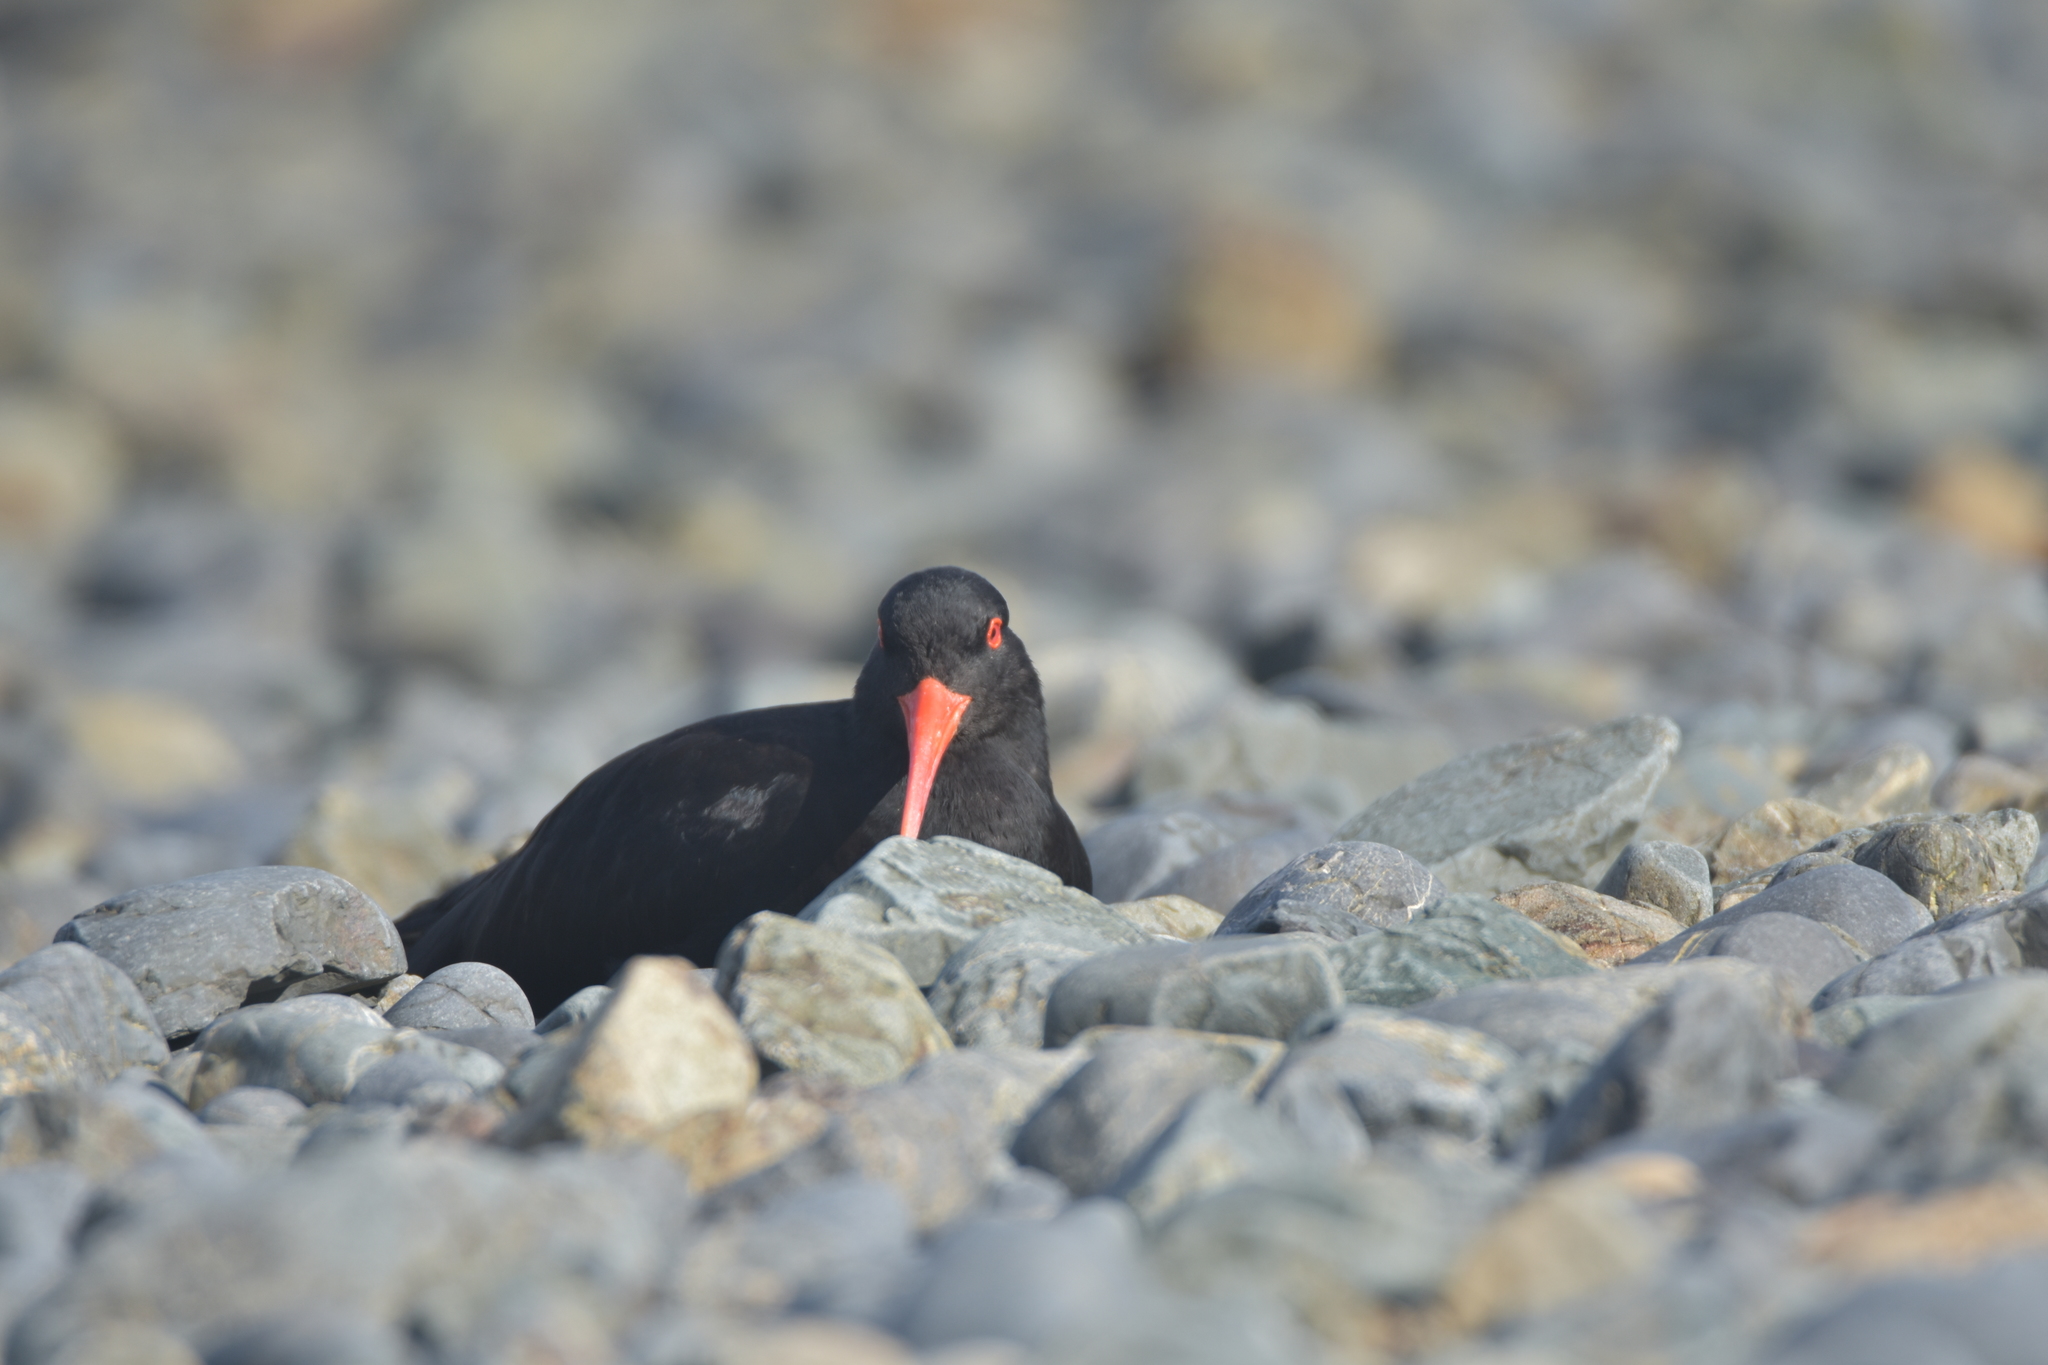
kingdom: Animalia
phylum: Chordata
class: Aves
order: Charadriiformes
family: Haematopodidae
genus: Haematopus
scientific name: Haematopus unicolor
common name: Variable oystercatcher
